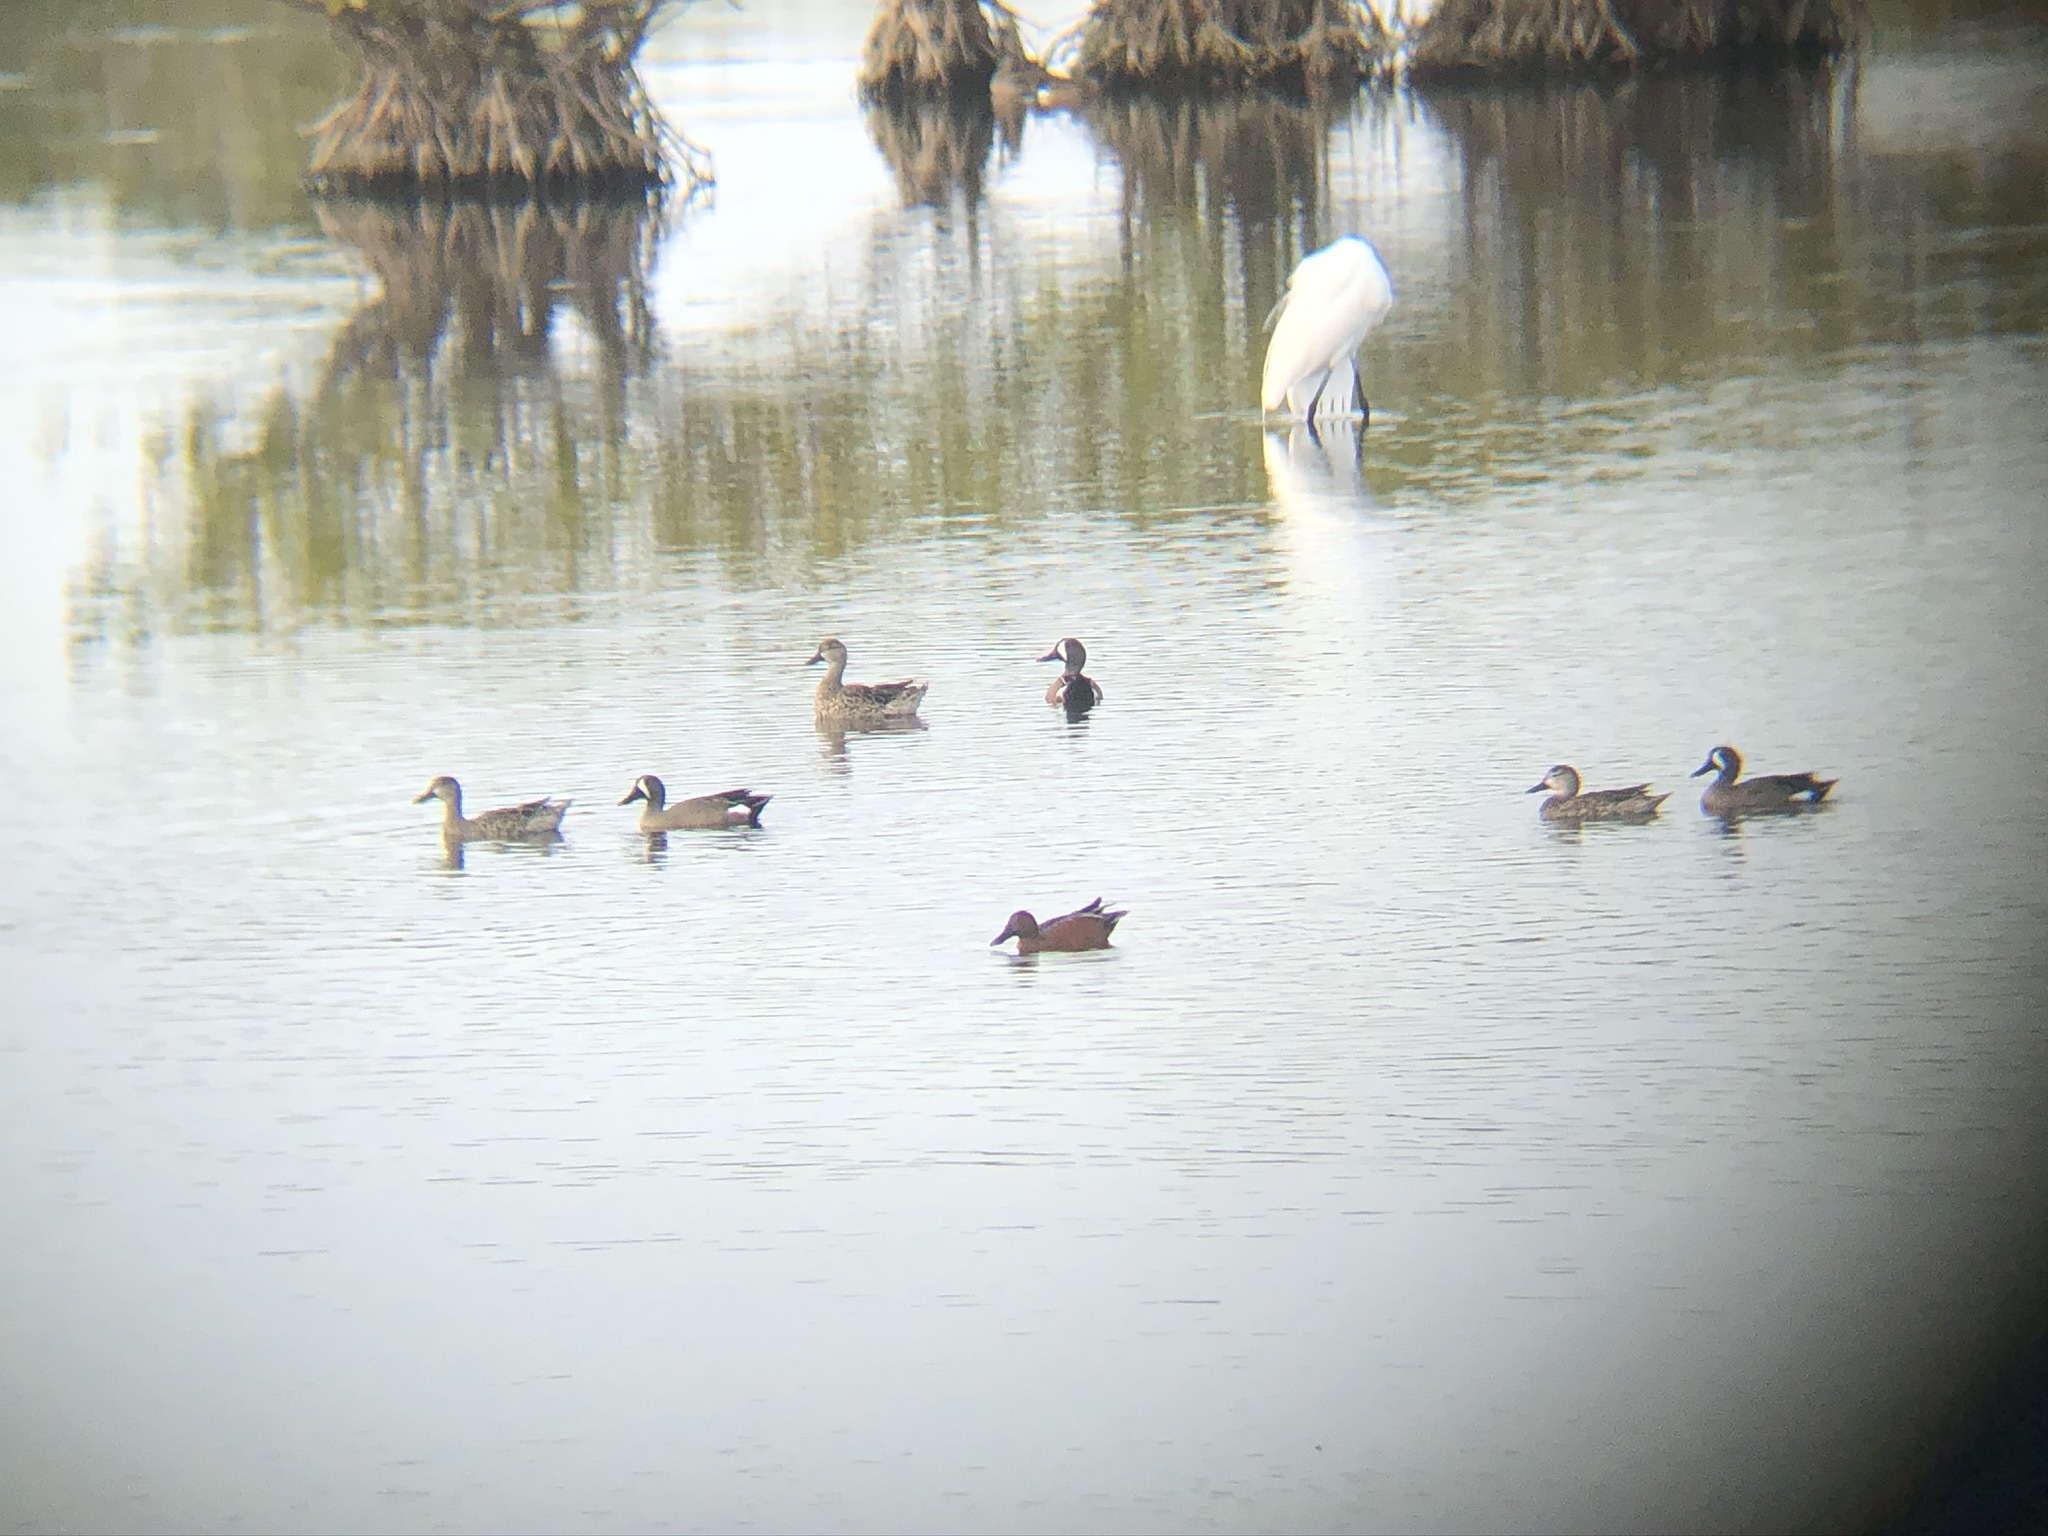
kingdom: Animalia
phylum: Chordata
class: Aves
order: Anseriformes
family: Anatidae
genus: Spatula
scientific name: Spatula cyanoptera
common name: Cinnamon teal
